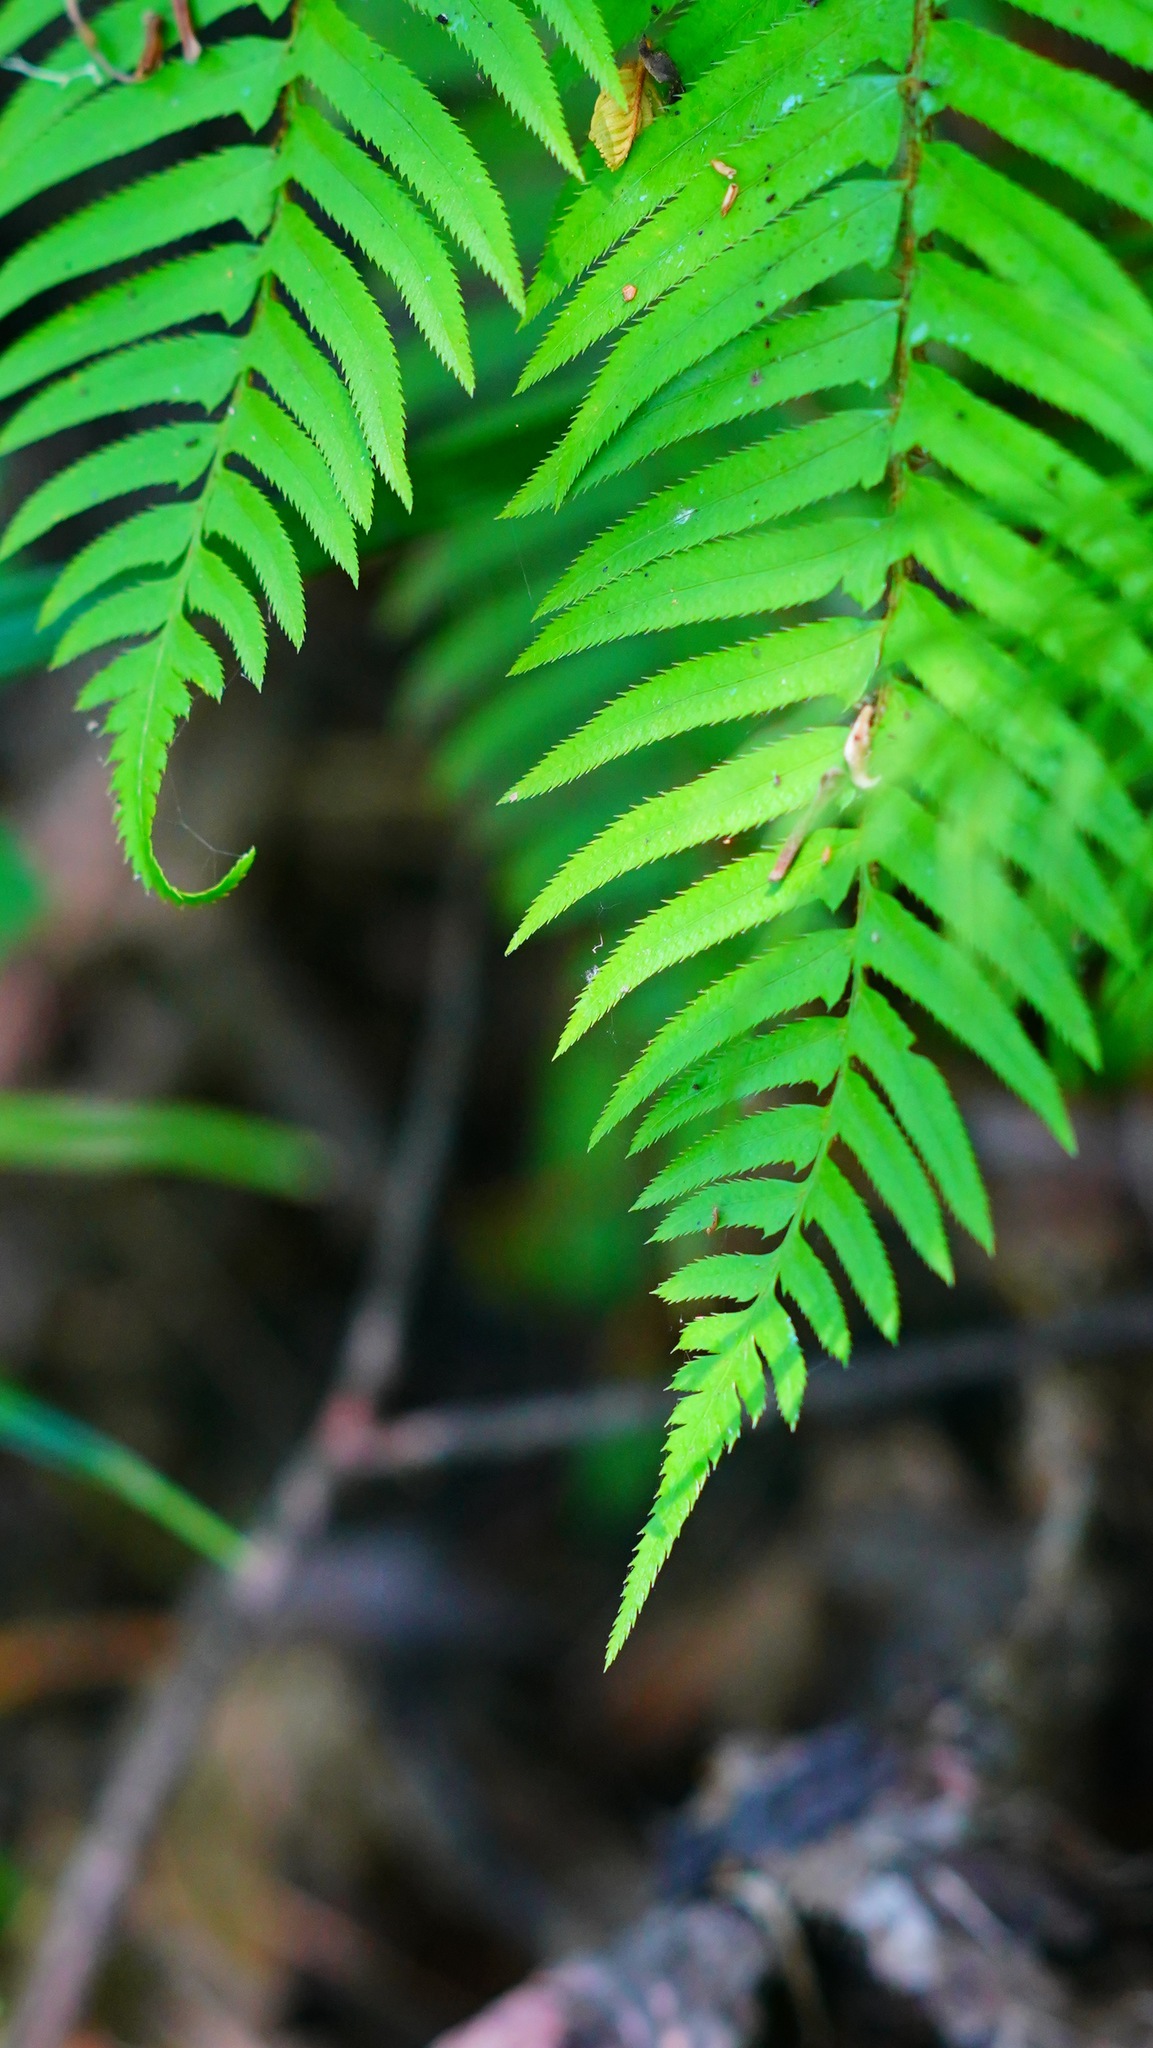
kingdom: Plantae
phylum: Tracheophyta
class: Polypodiopsida
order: Polypodiales
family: Dryopteridaceae
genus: Polystichum
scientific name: Polystichum munitum
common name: Western sword-fern
